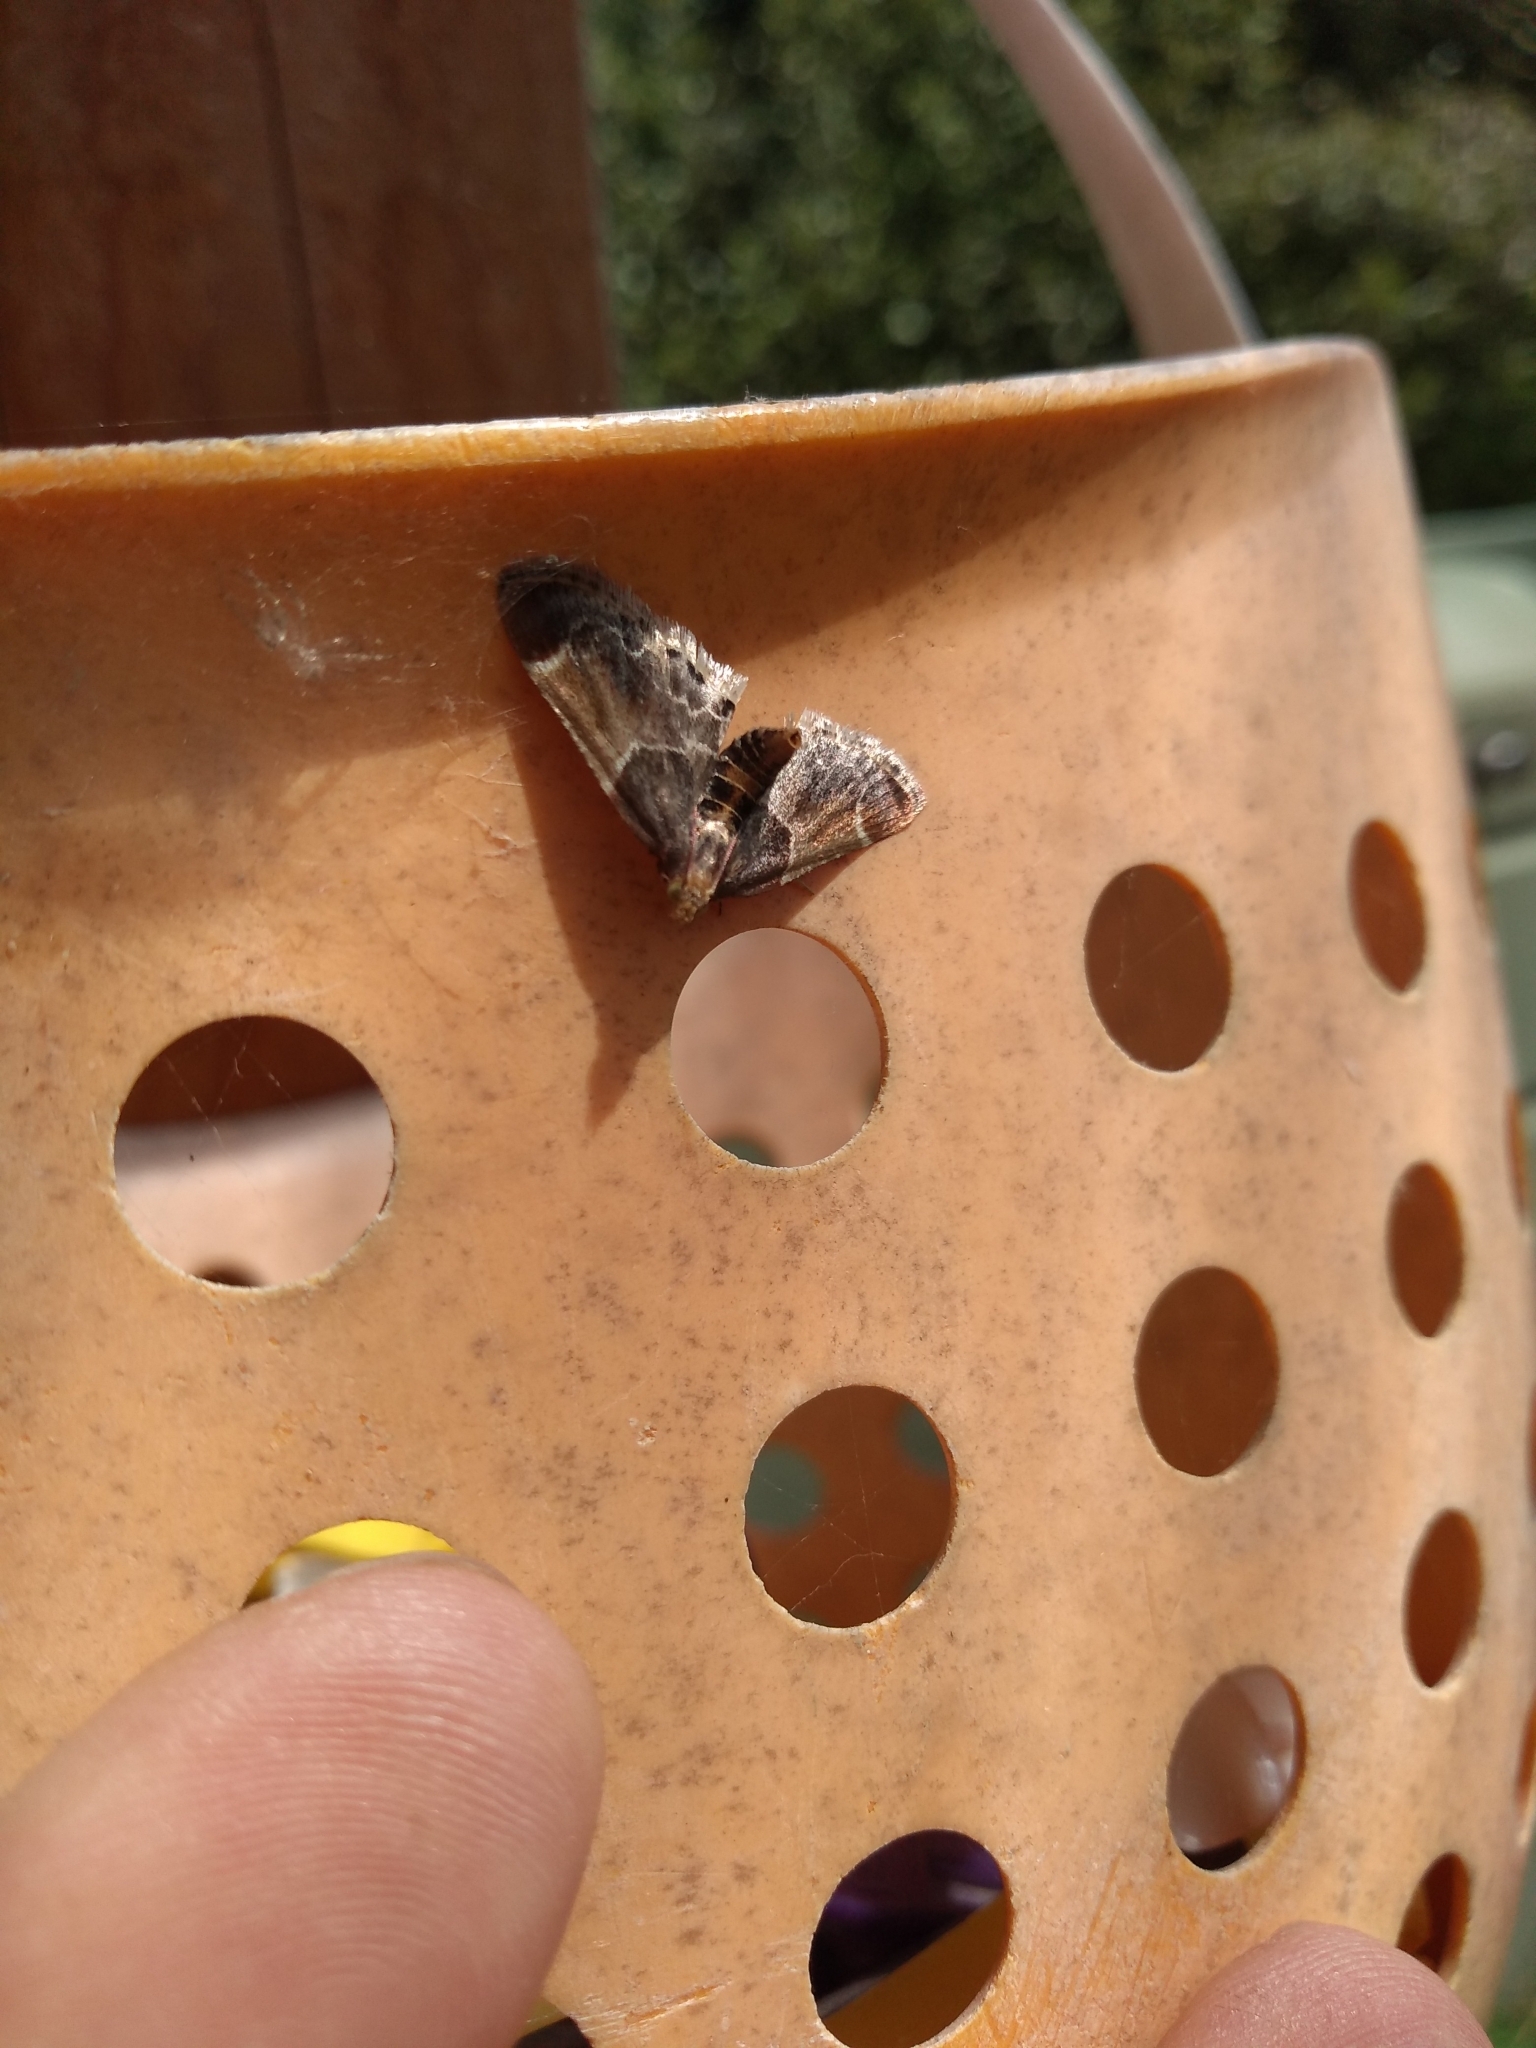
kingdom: Animalia
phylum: Arthropoda
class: Insecta
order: Lepidoptera
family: Pyralidae
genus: Pyralis
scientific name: Pyralis farinalis
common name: Meal moth
